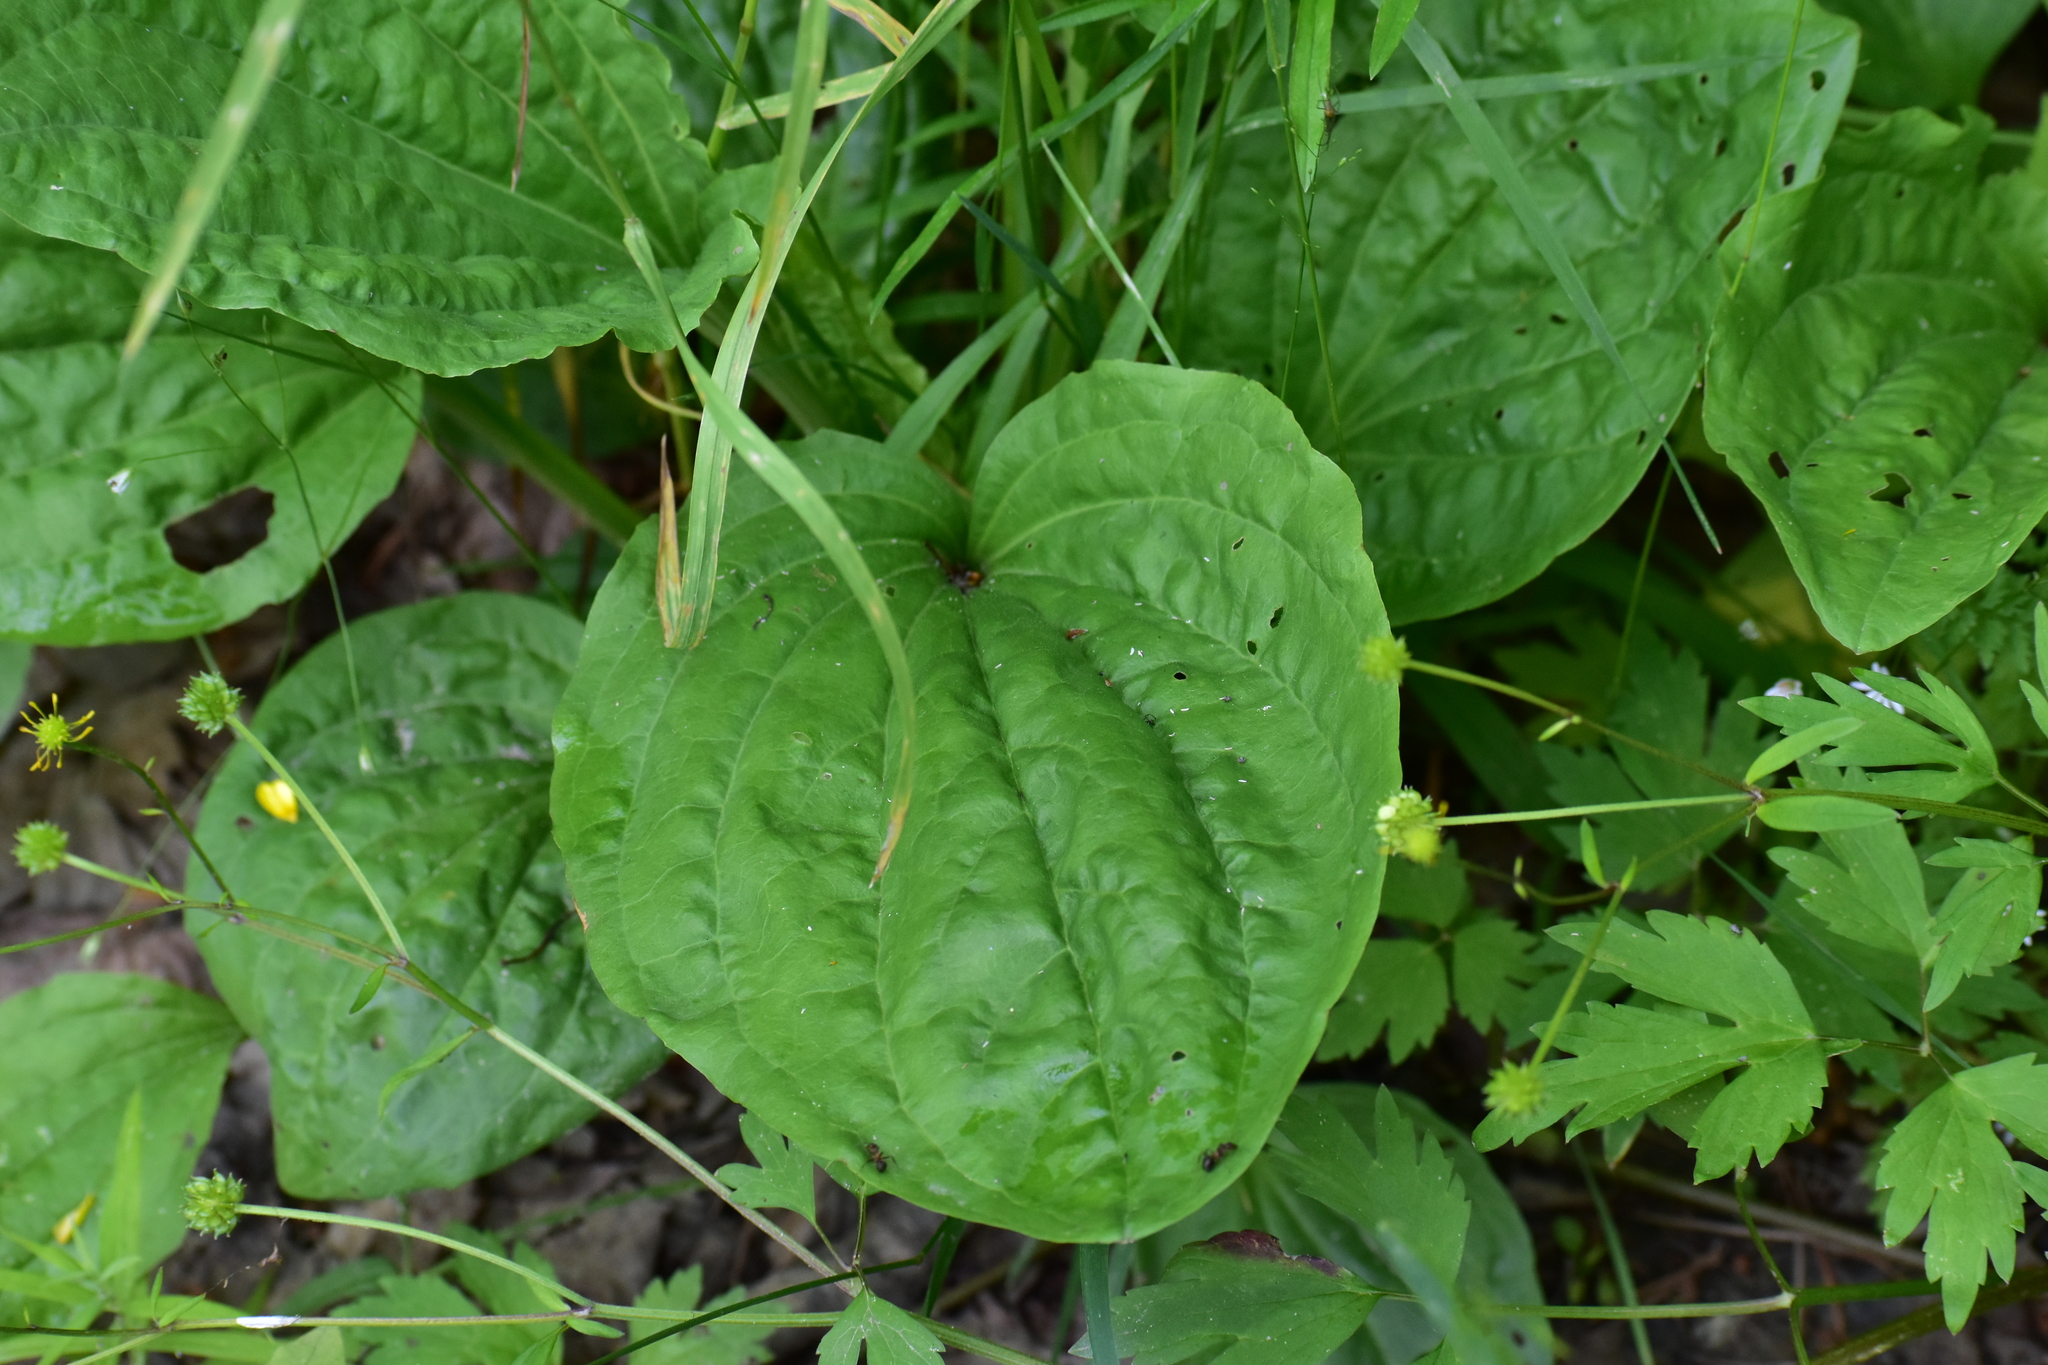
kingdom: Plantae
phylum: Tracheophyta
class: Magnoliopsida
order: Lamiales
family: Plantaginaceae
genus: Plantago
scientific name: Plantago major
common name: Common plantain
